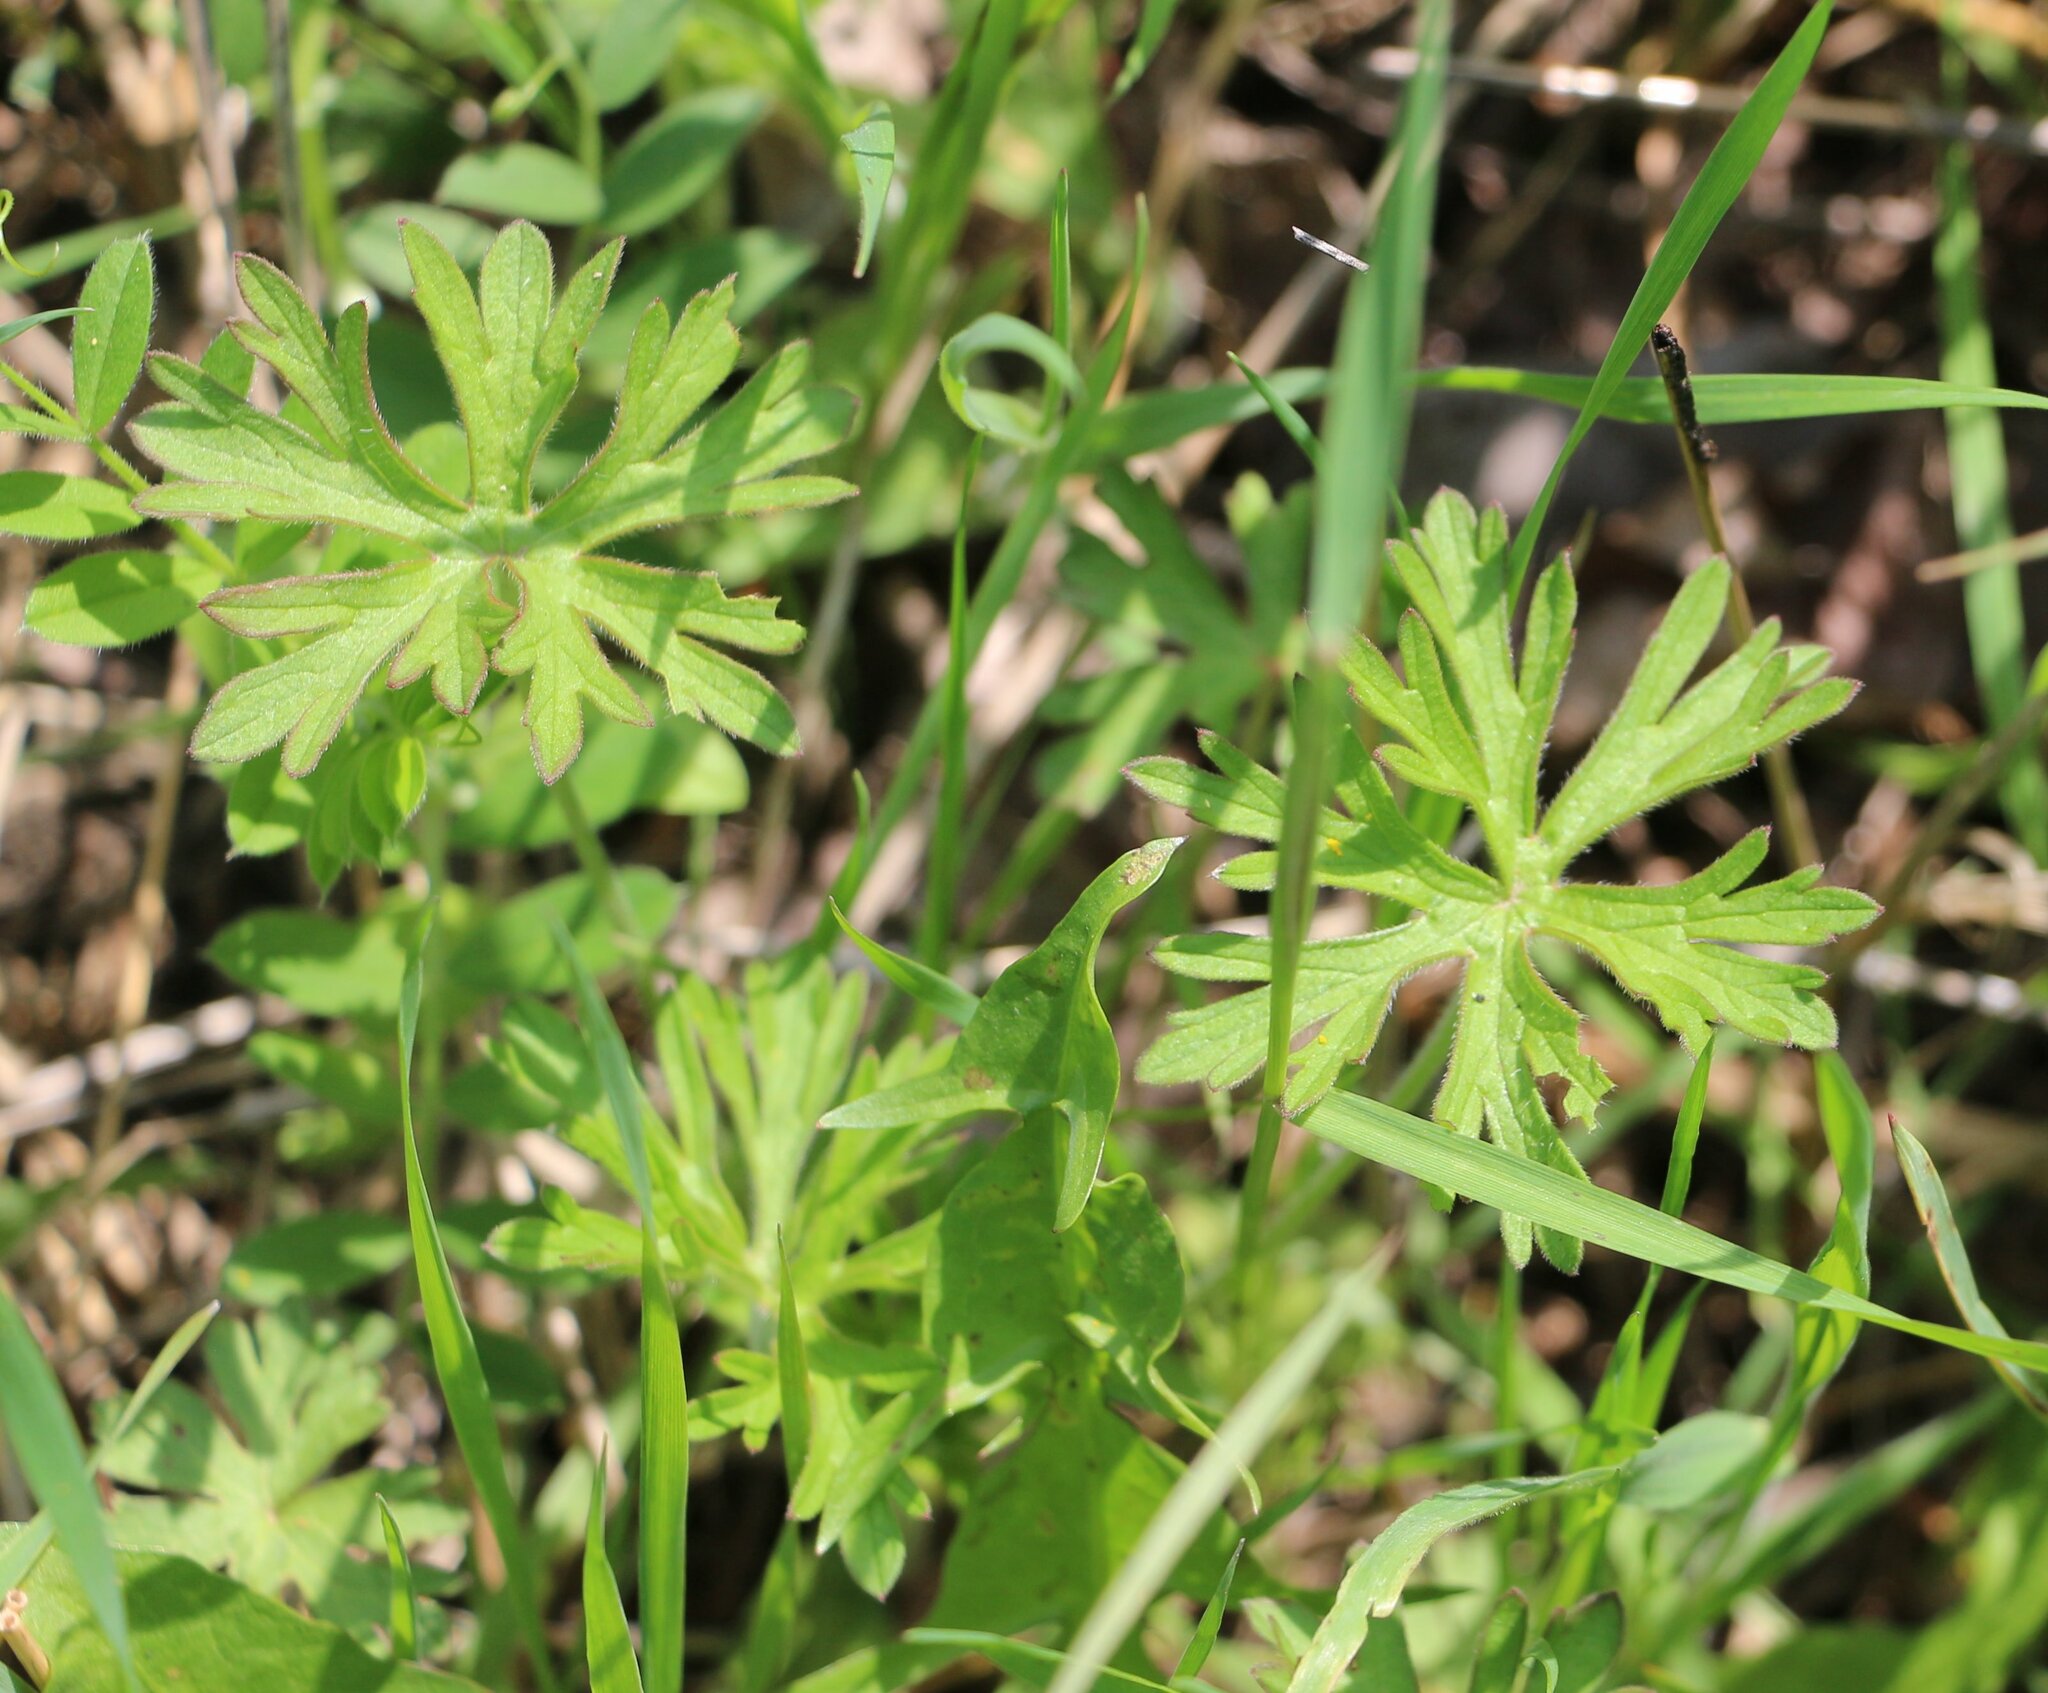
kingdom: Plantae
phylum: Tracheophyta
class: Magnoliopsida
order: Geraniales
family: Geraniaceae
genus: Geranium
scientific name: Geranium dissectum
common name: Cut-leaved crane's-bill
